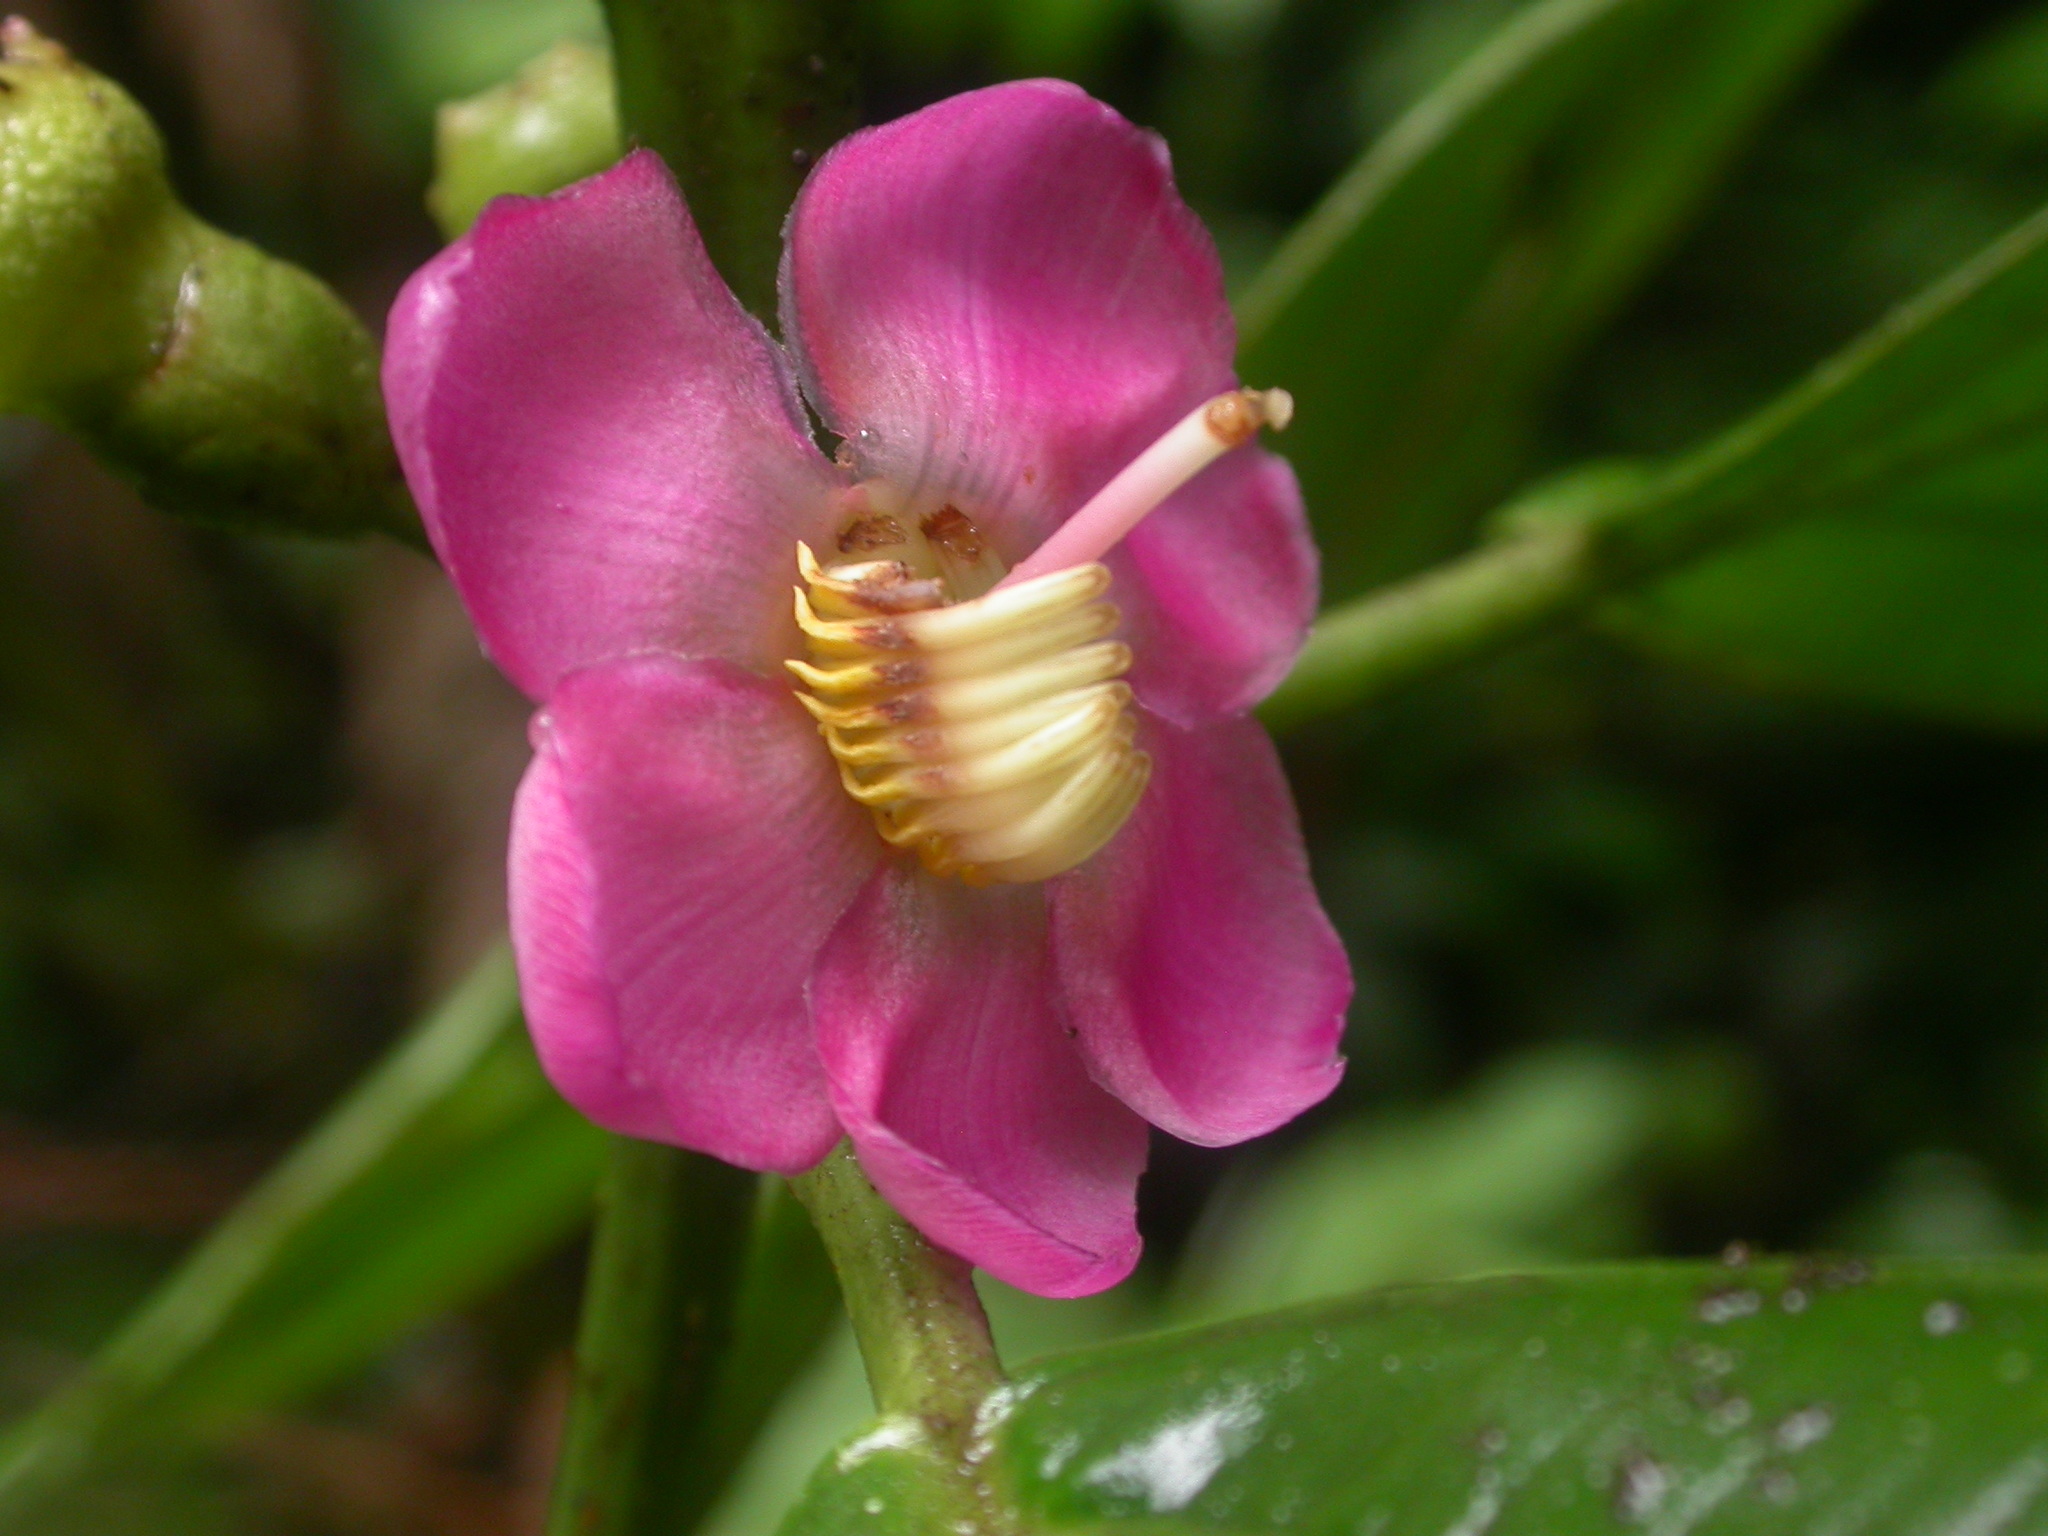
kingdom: Plantae
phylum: Tracheophyta
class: Magnoliopsida
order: Myrtales
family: Melastomataceae
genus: Blakea
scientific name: Blakea maurofernandeziana
